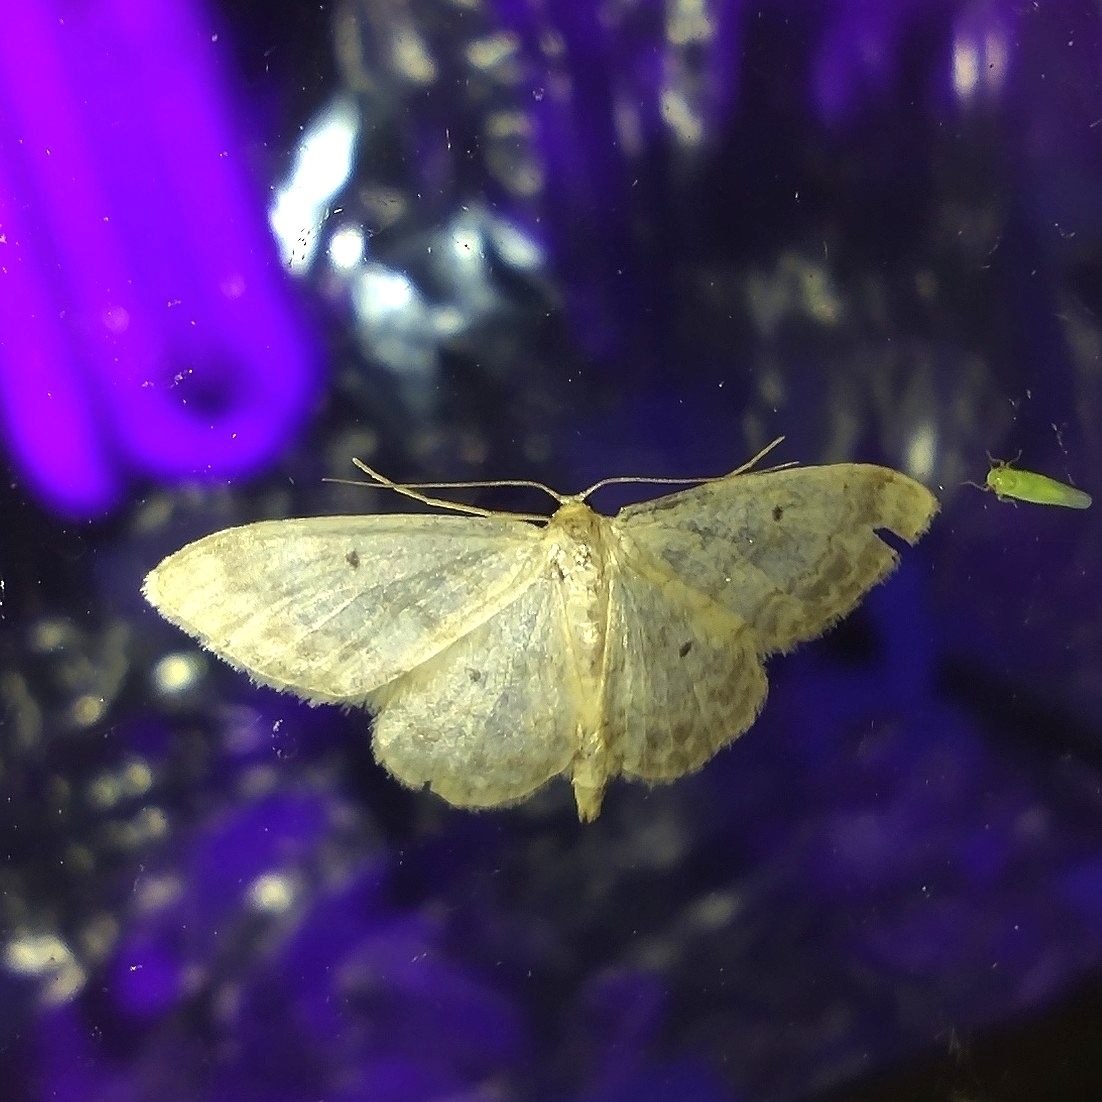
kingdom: Animalia
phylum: Arthropoda
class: Insecta
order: Lepidoptera
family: Geometridae
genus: Idaea
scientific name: Idaea biselata
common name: Small fan-footed wave
